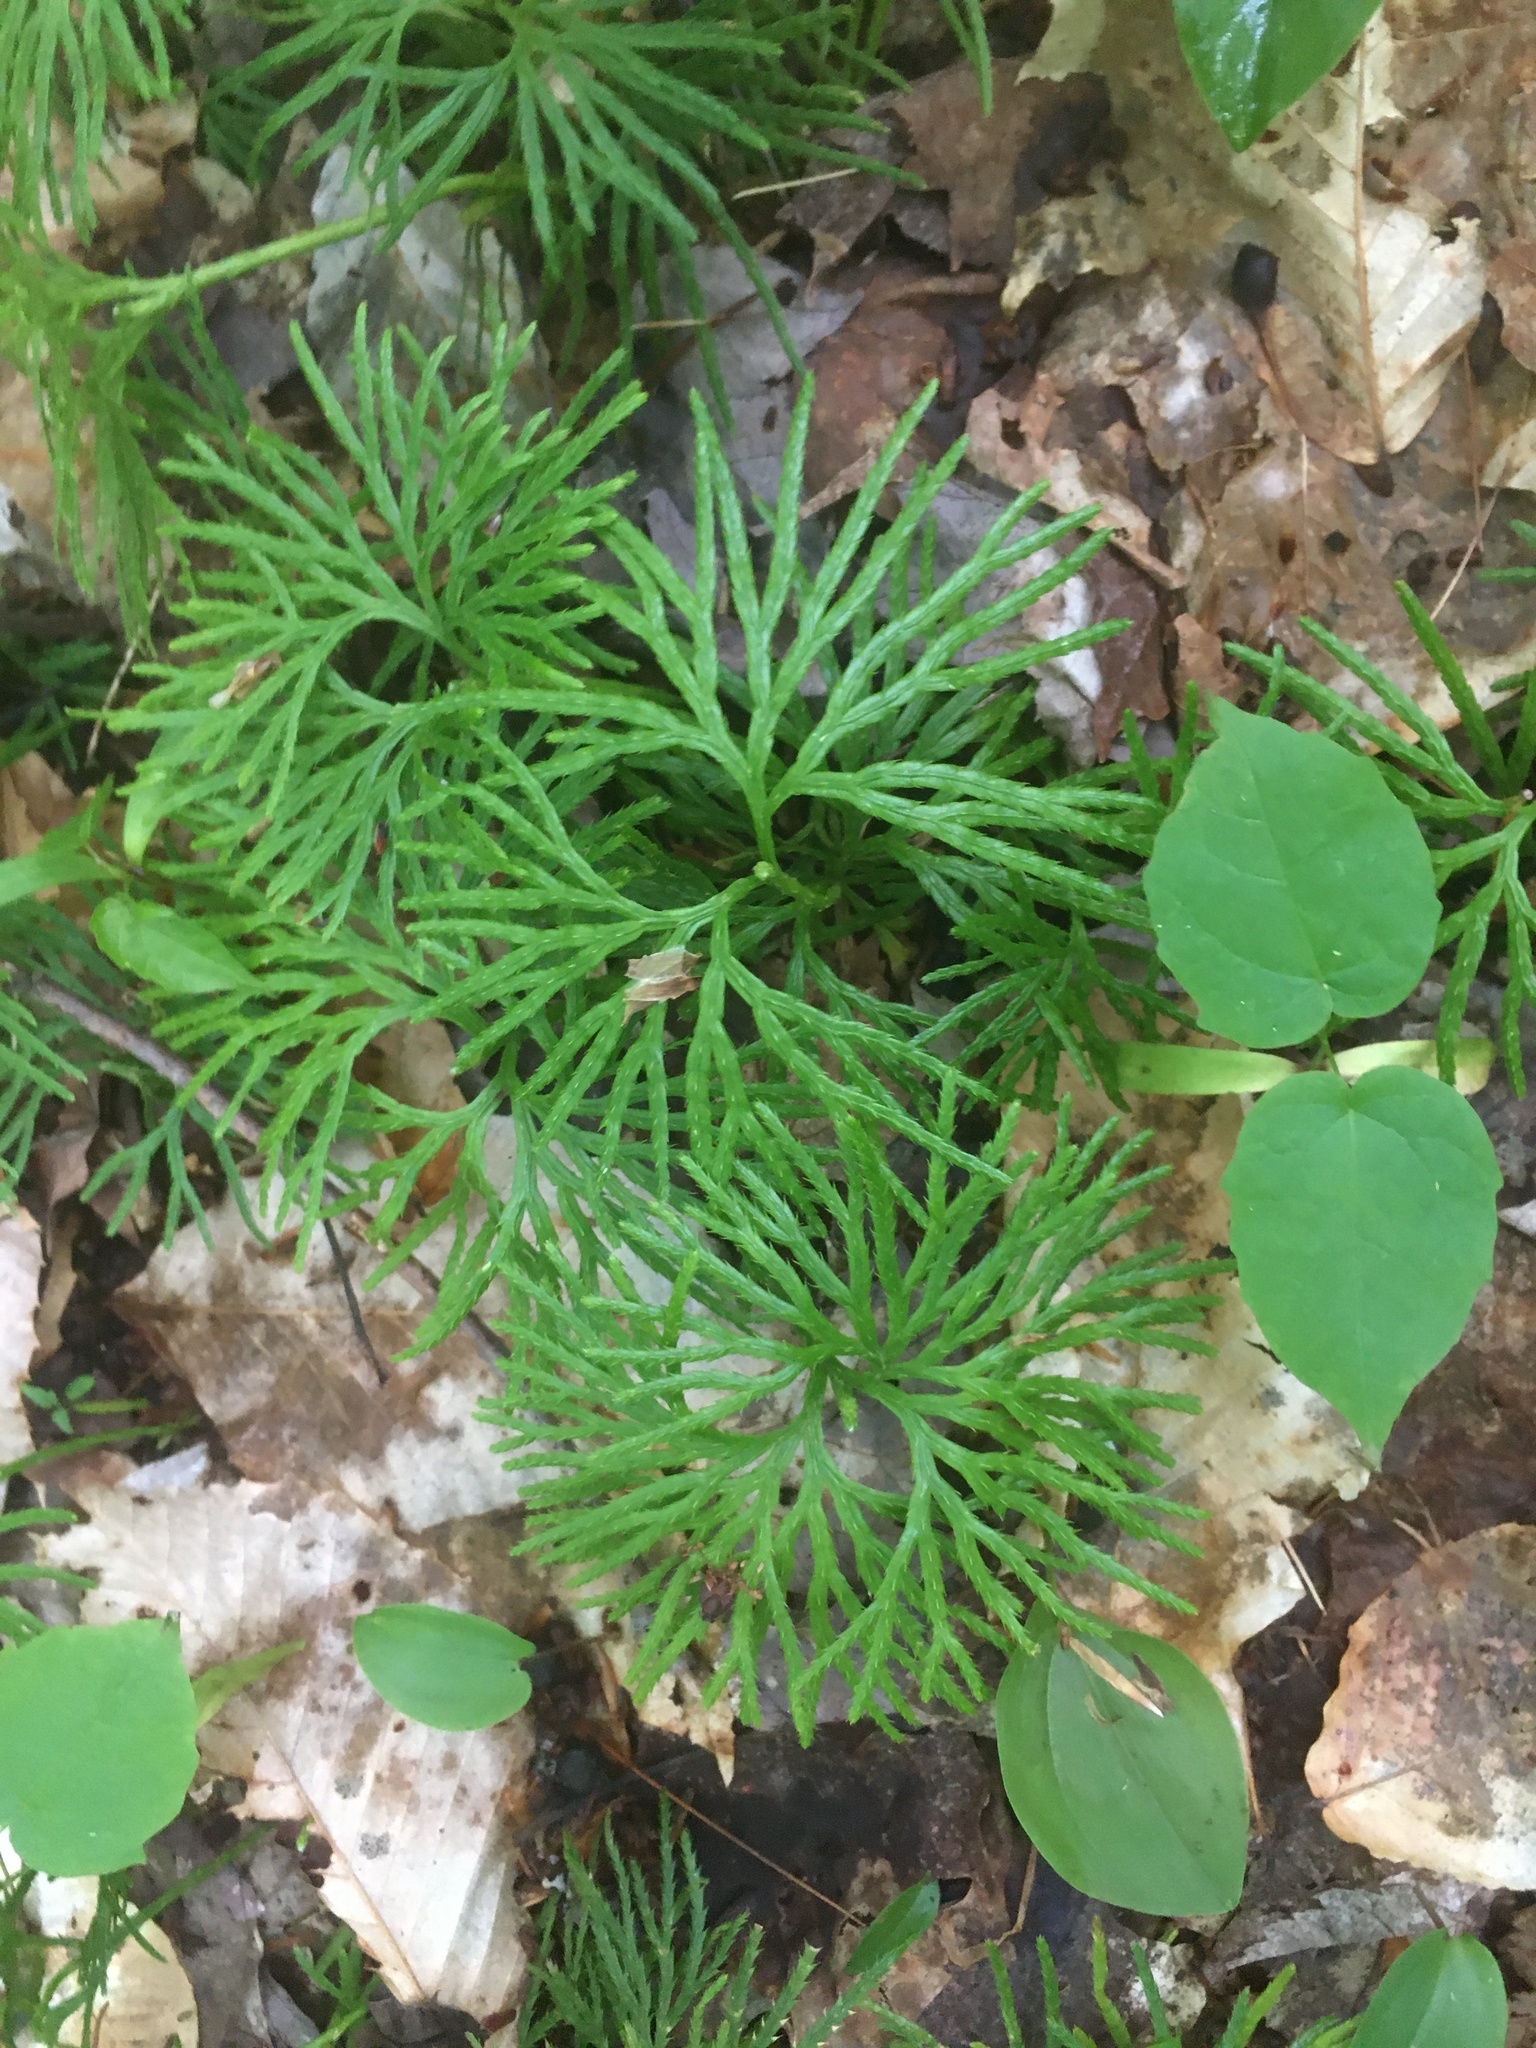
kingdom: Plantae
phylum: Tracheophyta
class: Lycopodiopsida
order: Lycopodiales
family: Lycopodiaceae
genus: Diphasiastrum
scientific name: Diphasiastrum digitatum
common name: Southern running-pine
